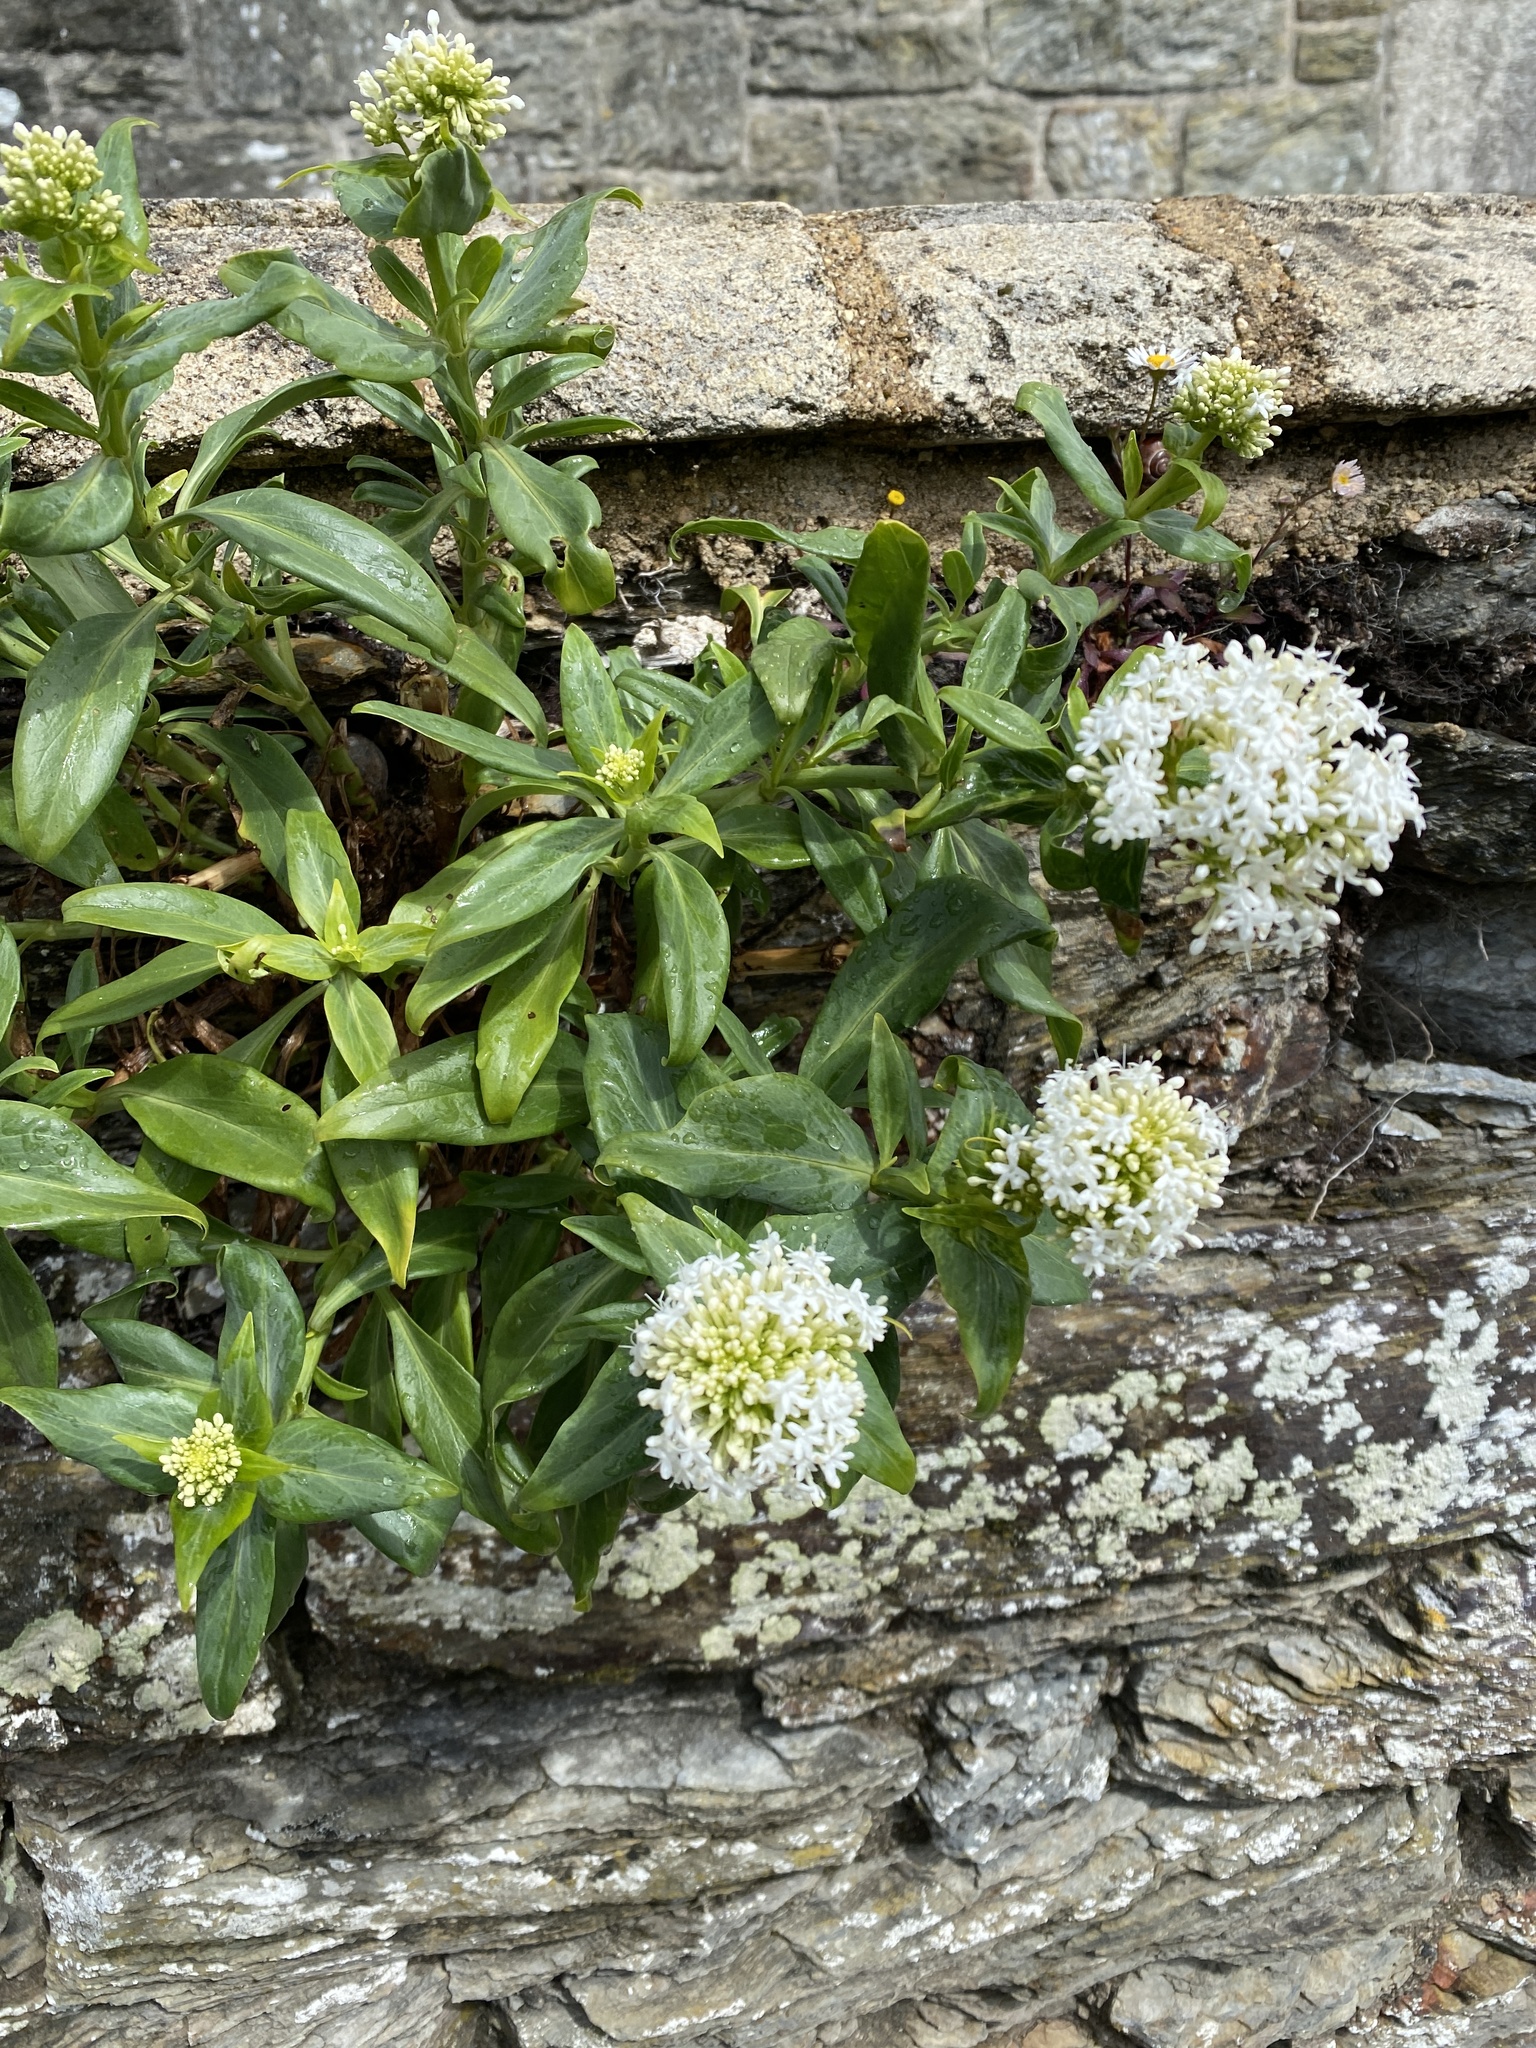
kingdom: Plantae
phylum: Tracheophyta
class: Magnoliopsida
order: Dipsacales
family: Caprifoliaceae
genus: Centranthus
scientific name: Centranthus ruber
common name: Red valerian
